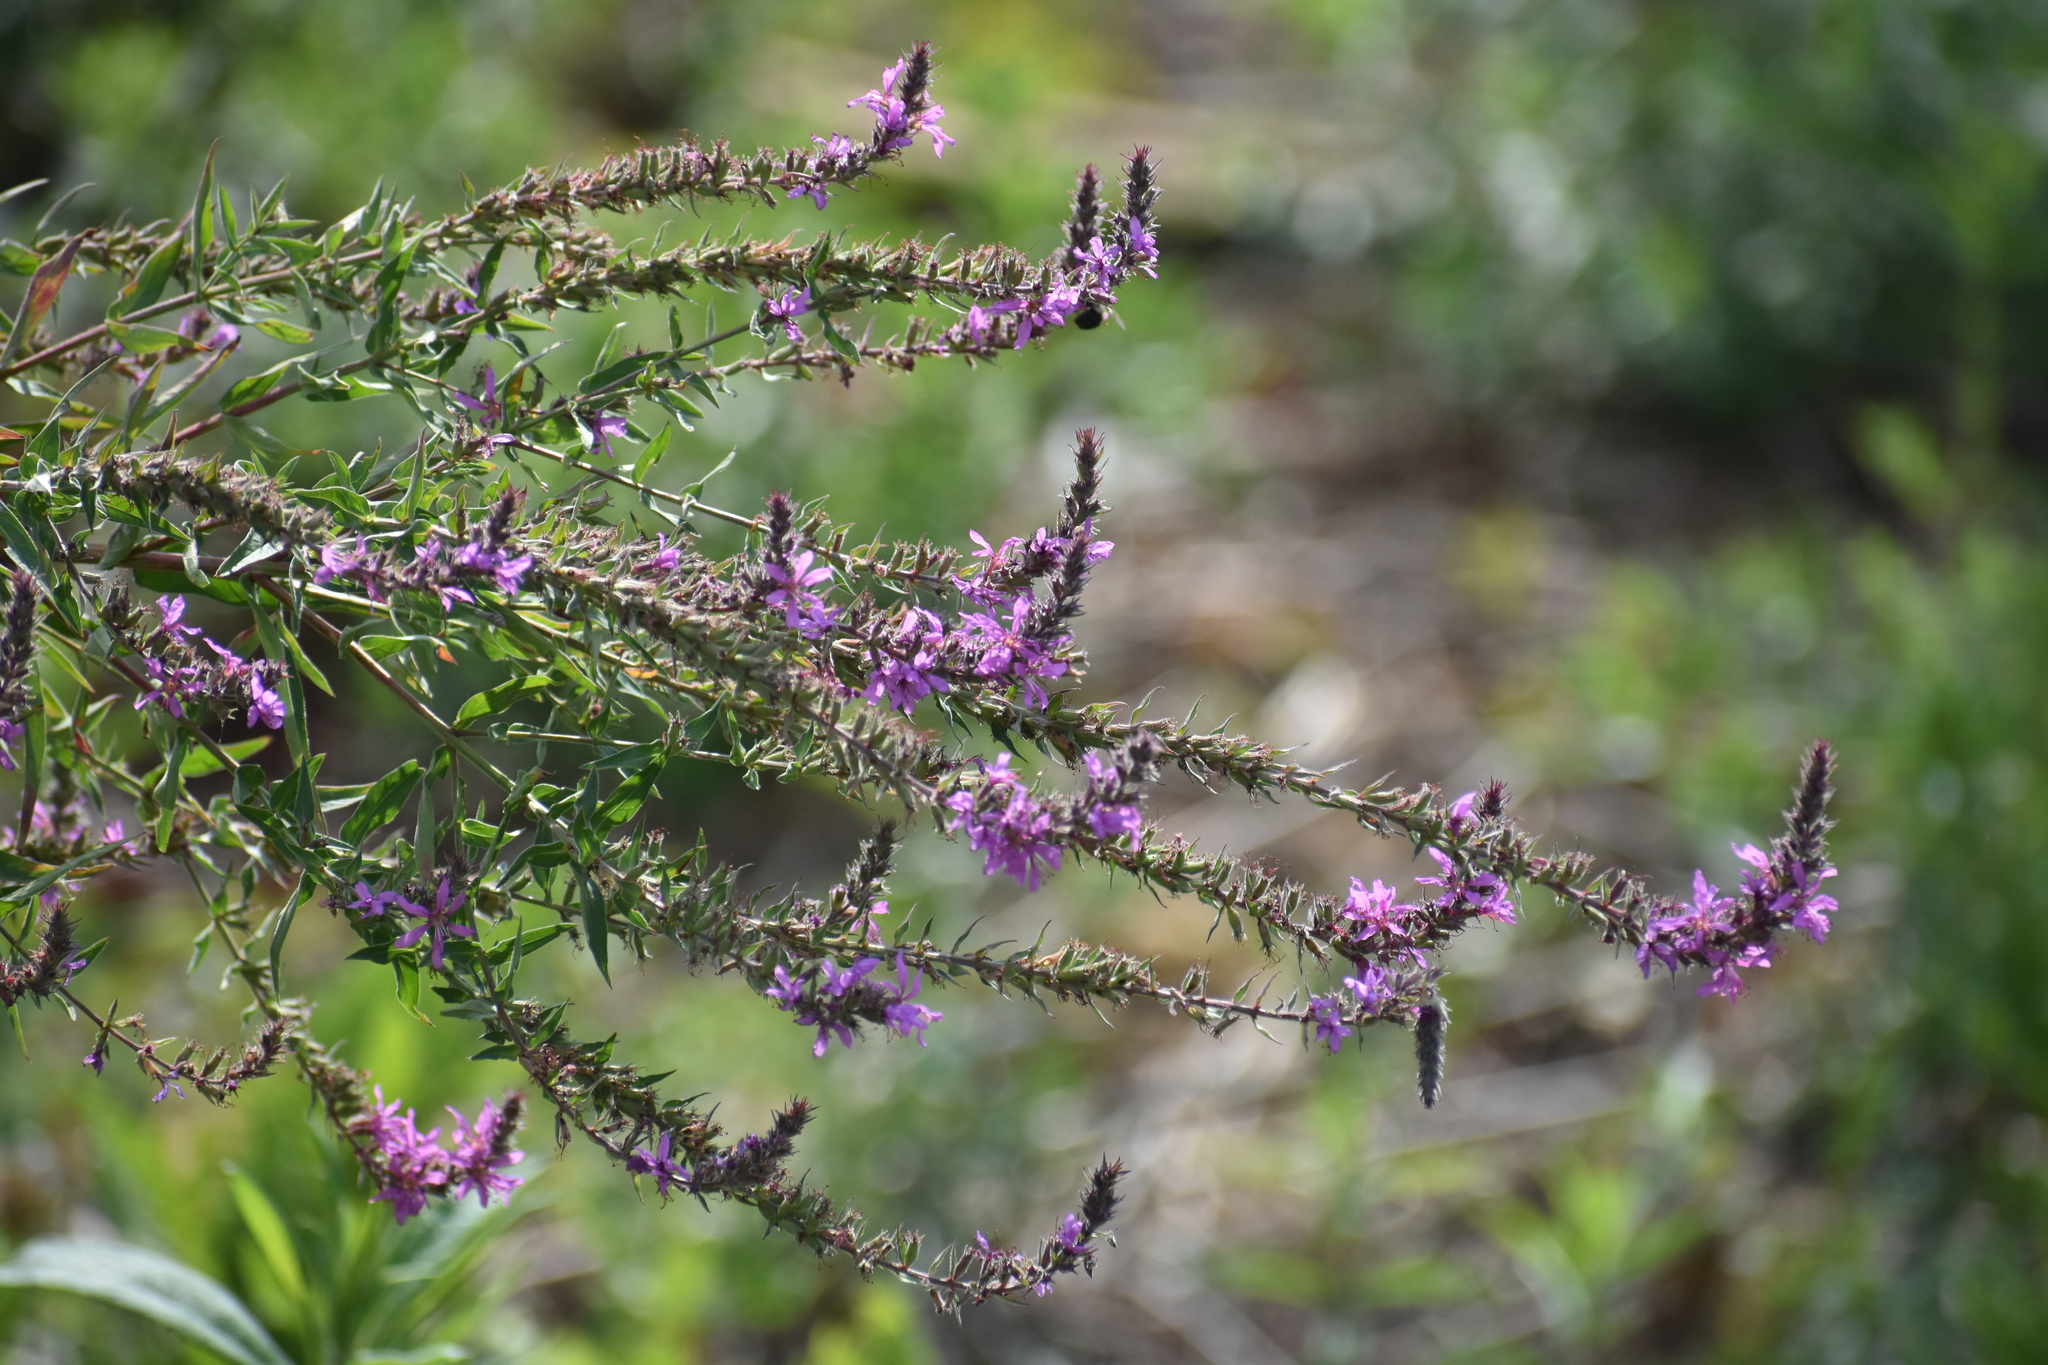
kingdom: Plantae
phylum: Tracheophyta
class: Magnoliopsida
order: Myrtales
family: Lythraceae
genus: Lythrum
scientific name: Lythrum salicaria
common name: Purple loosestrife
